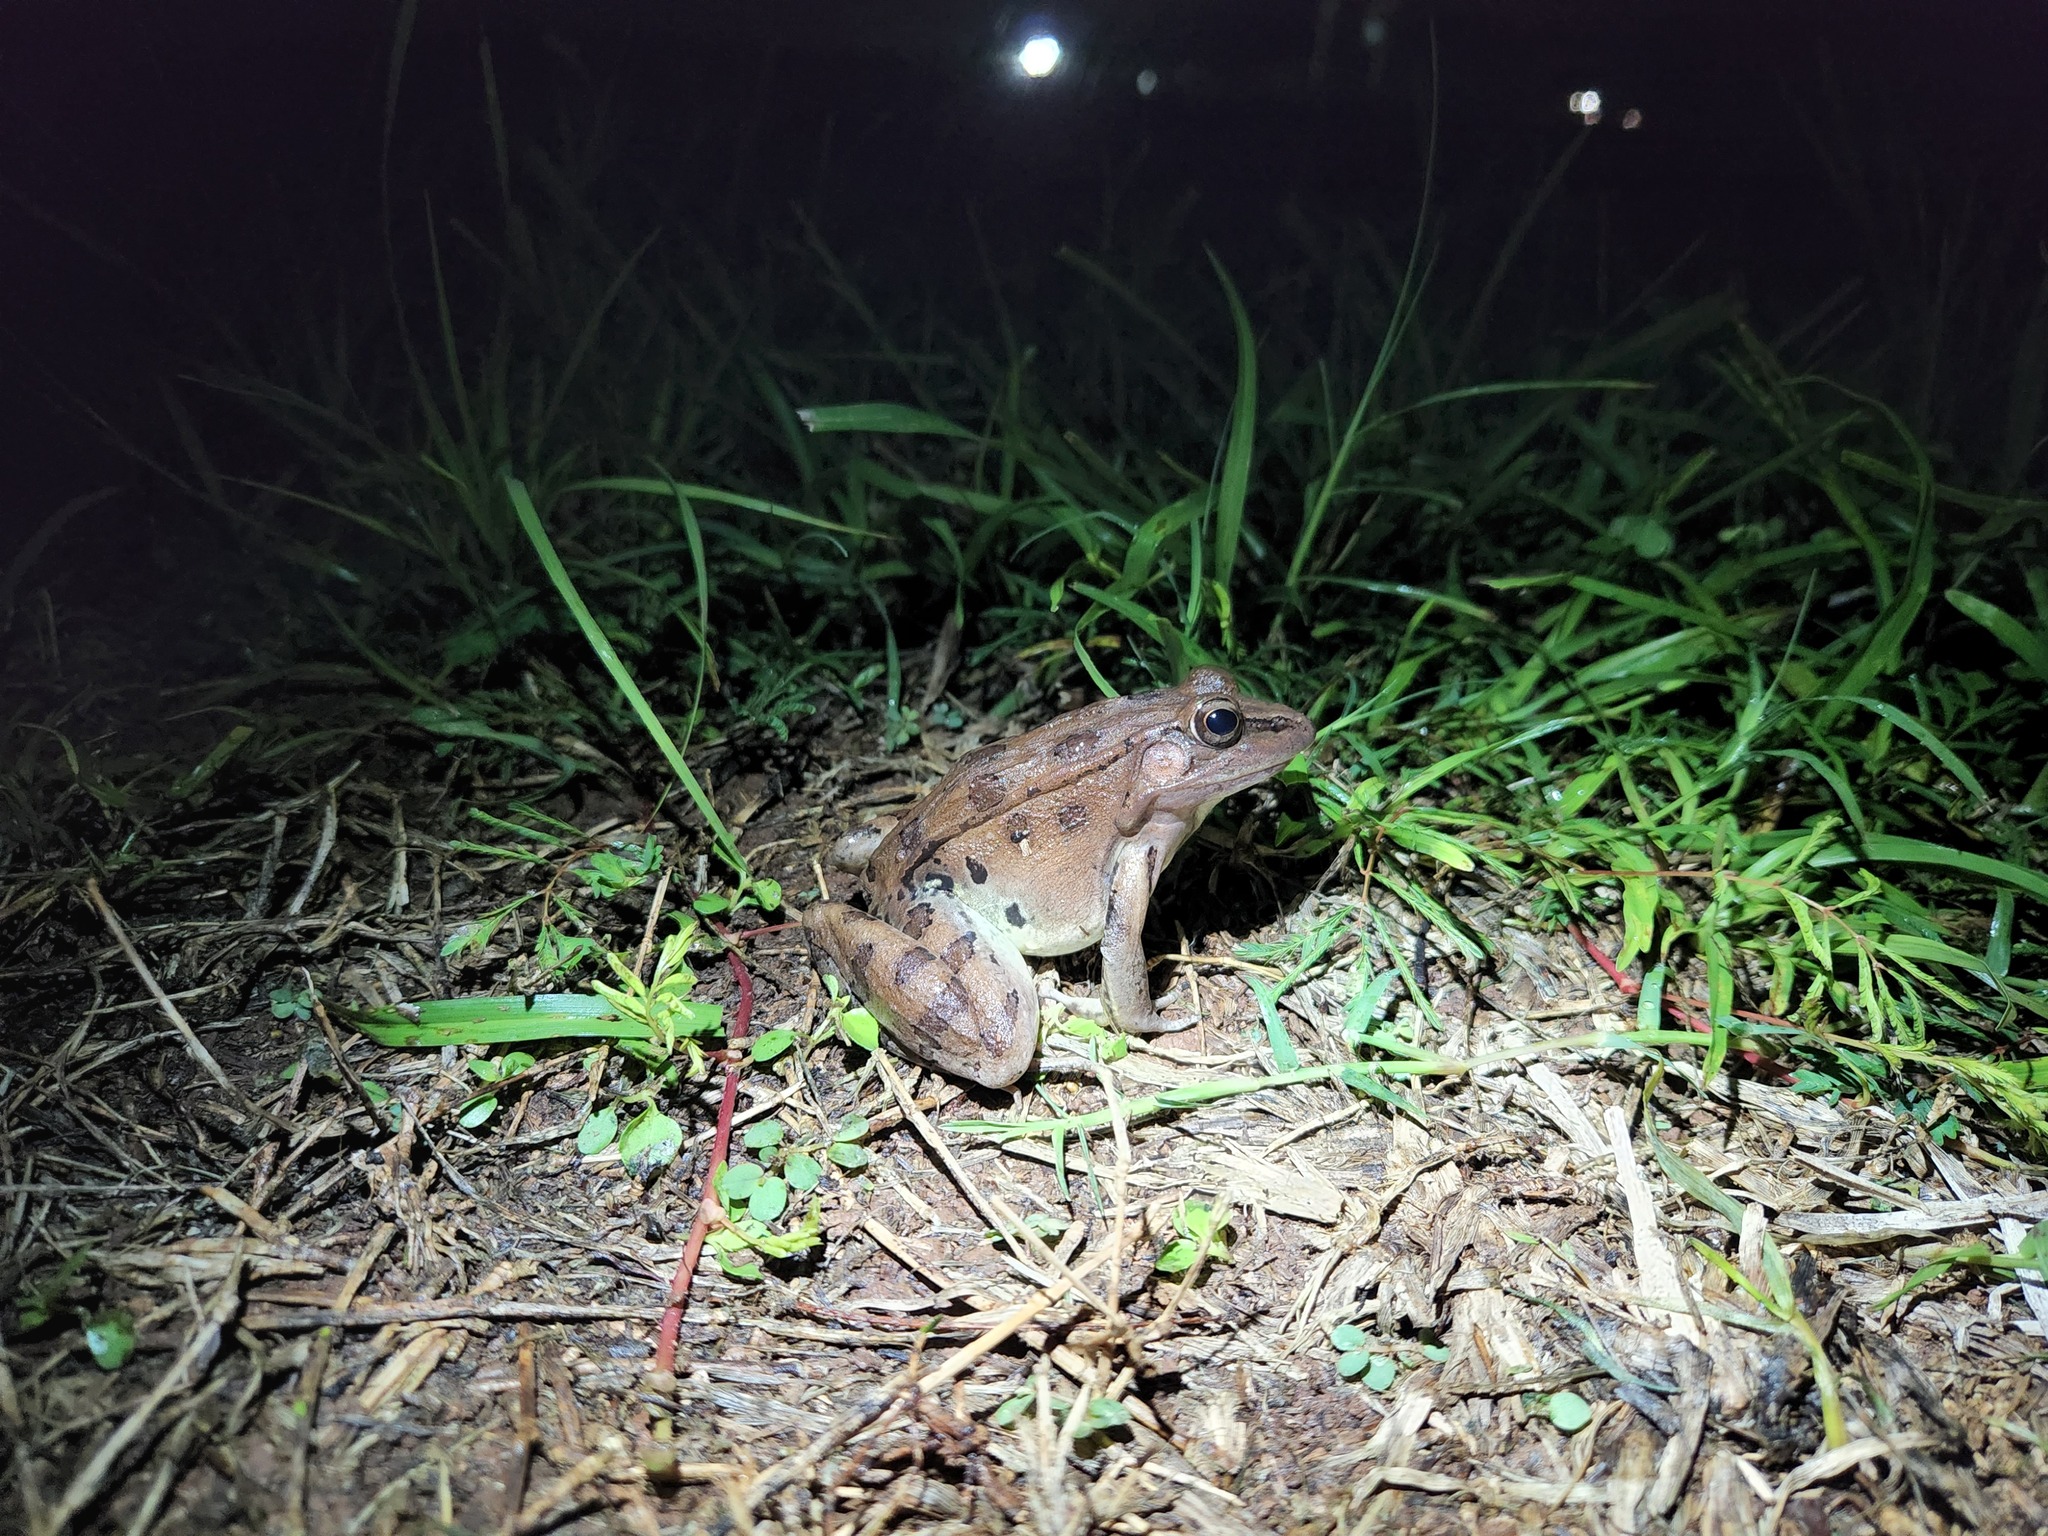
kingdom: Animalia
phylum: Chordata
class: Amphibia
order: Anura
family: Ranidae
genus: Lithobates
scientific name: Lithobates sphenocephalus
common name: Southern leopard frog
